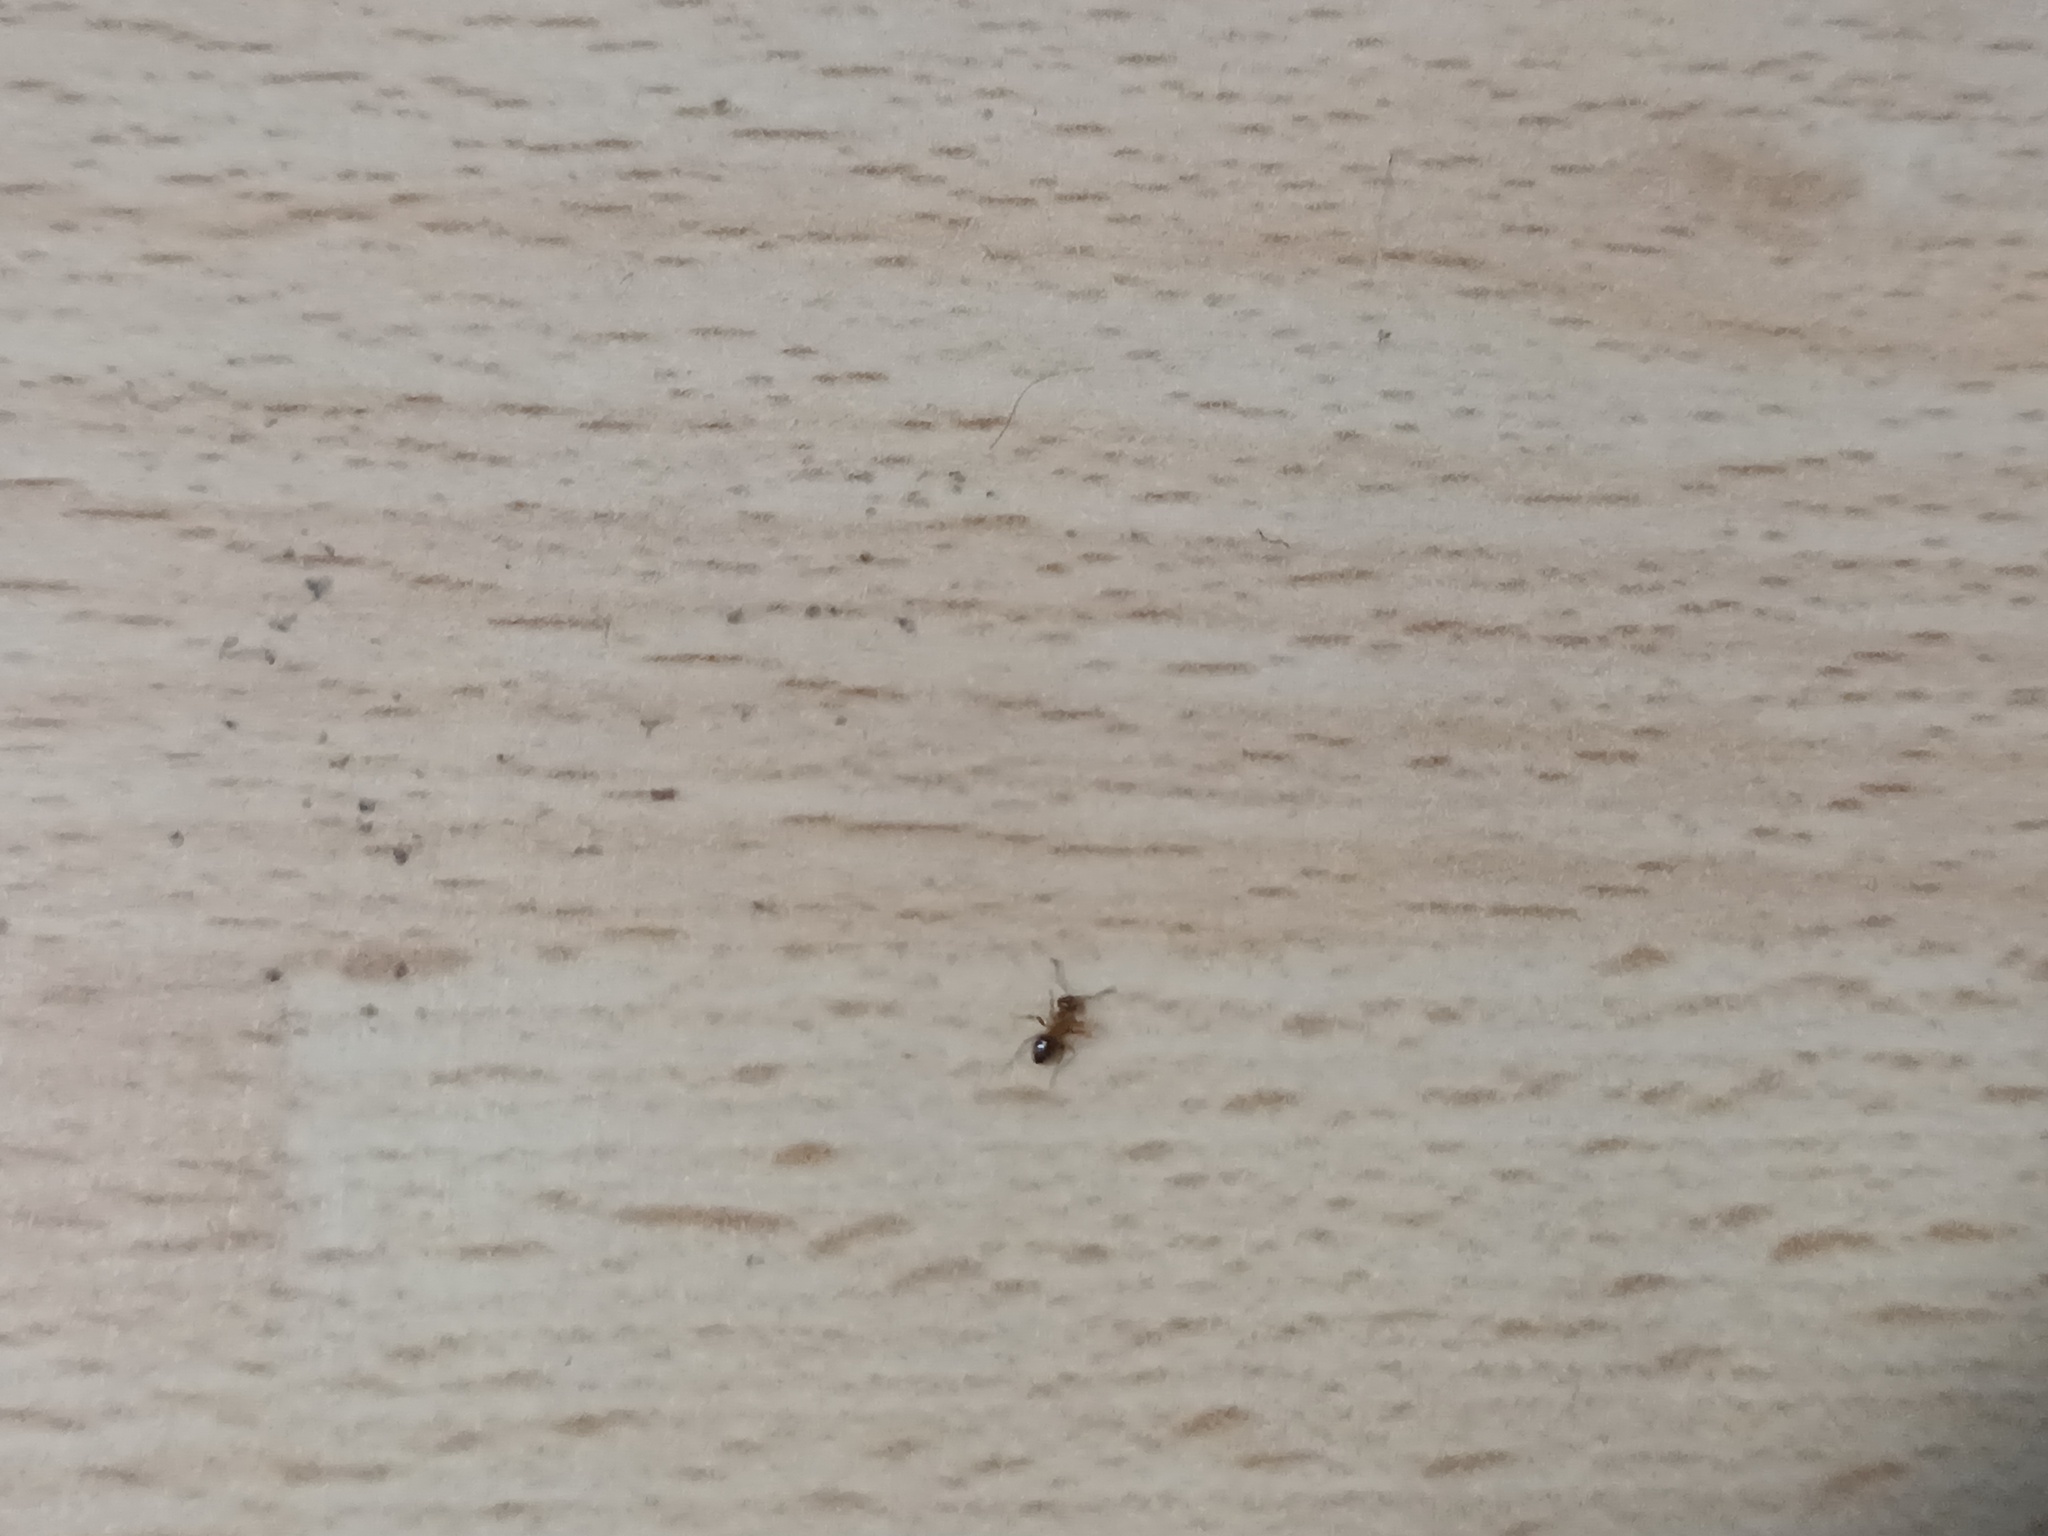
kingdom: Animalia
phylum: Arthropoda
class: Insecta
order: Hymenoptera
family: Formicidae
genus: Lasius
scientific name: Lasius brunneus
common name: Brown ant
